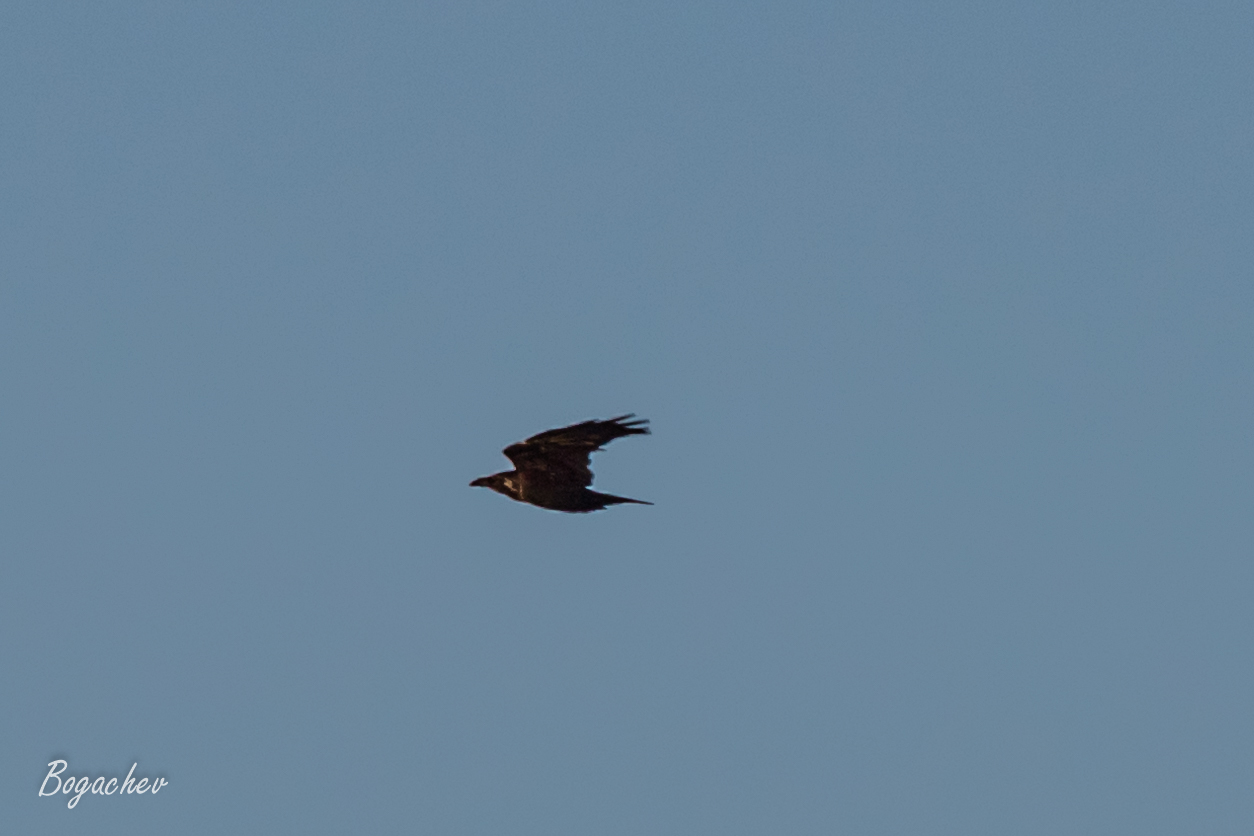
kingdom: Animalia
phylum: Chordata
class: Aves
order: Passeriformes
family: Corvidae
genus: Corvus
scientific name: Corvus corax
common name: Common raven
